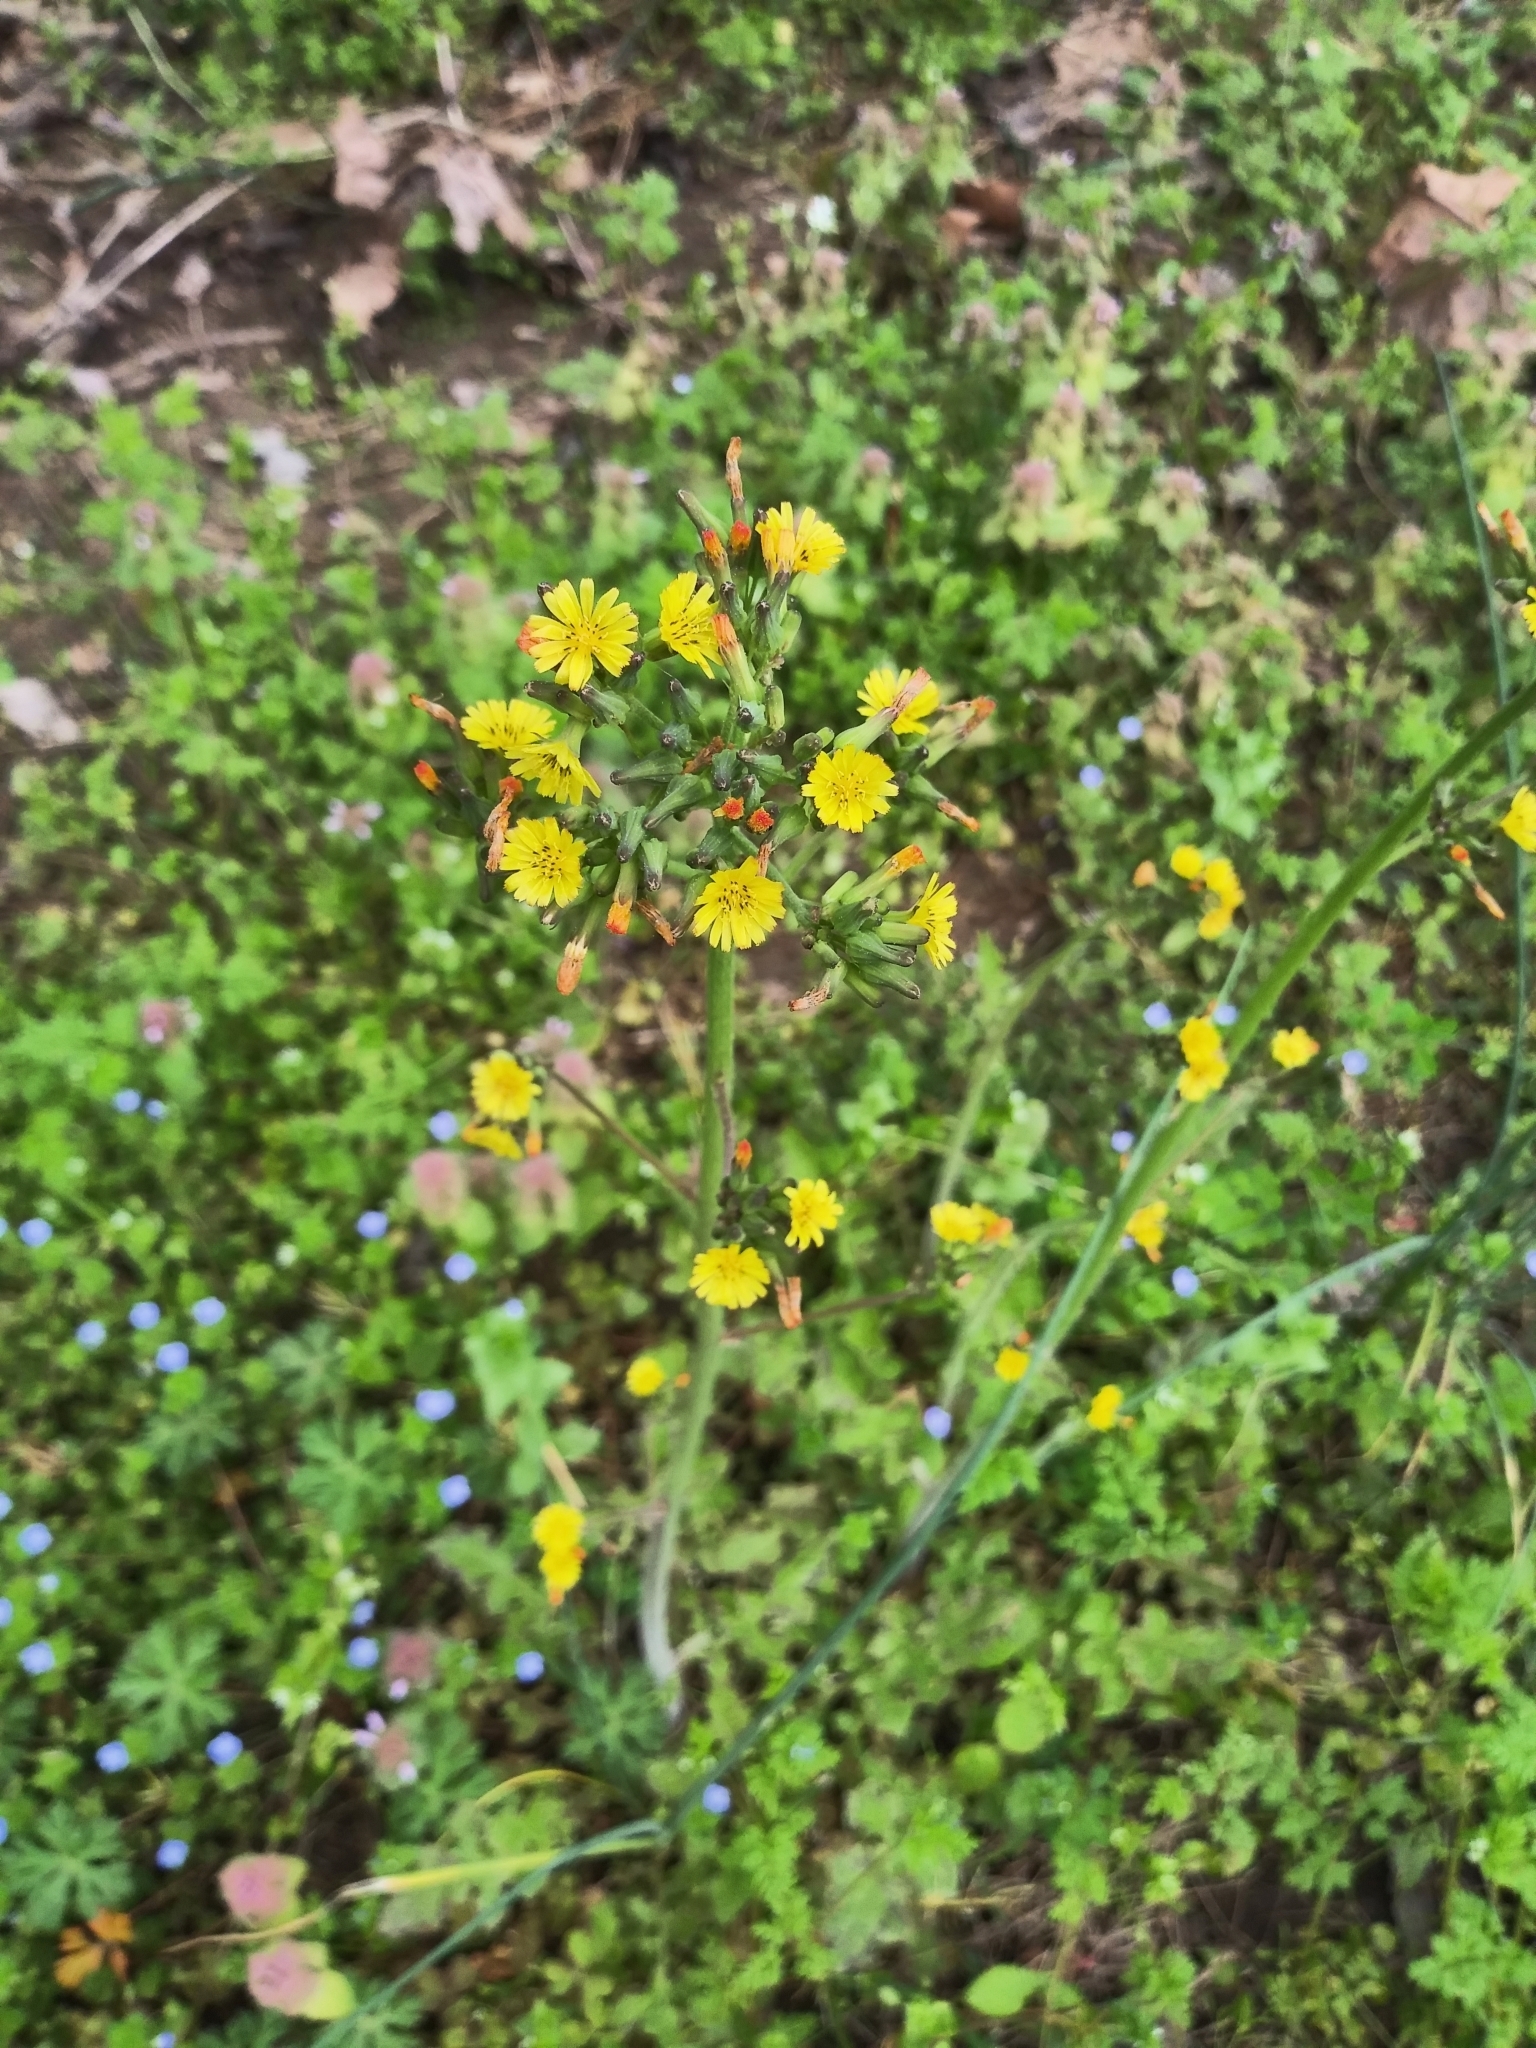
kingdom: Plantae
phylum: Tracheophyta
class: Magnoliopsida
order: Asterales
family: Asteraceae
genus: Youngia
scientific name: Youngia japonica
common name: Oriental false hawksbeard
